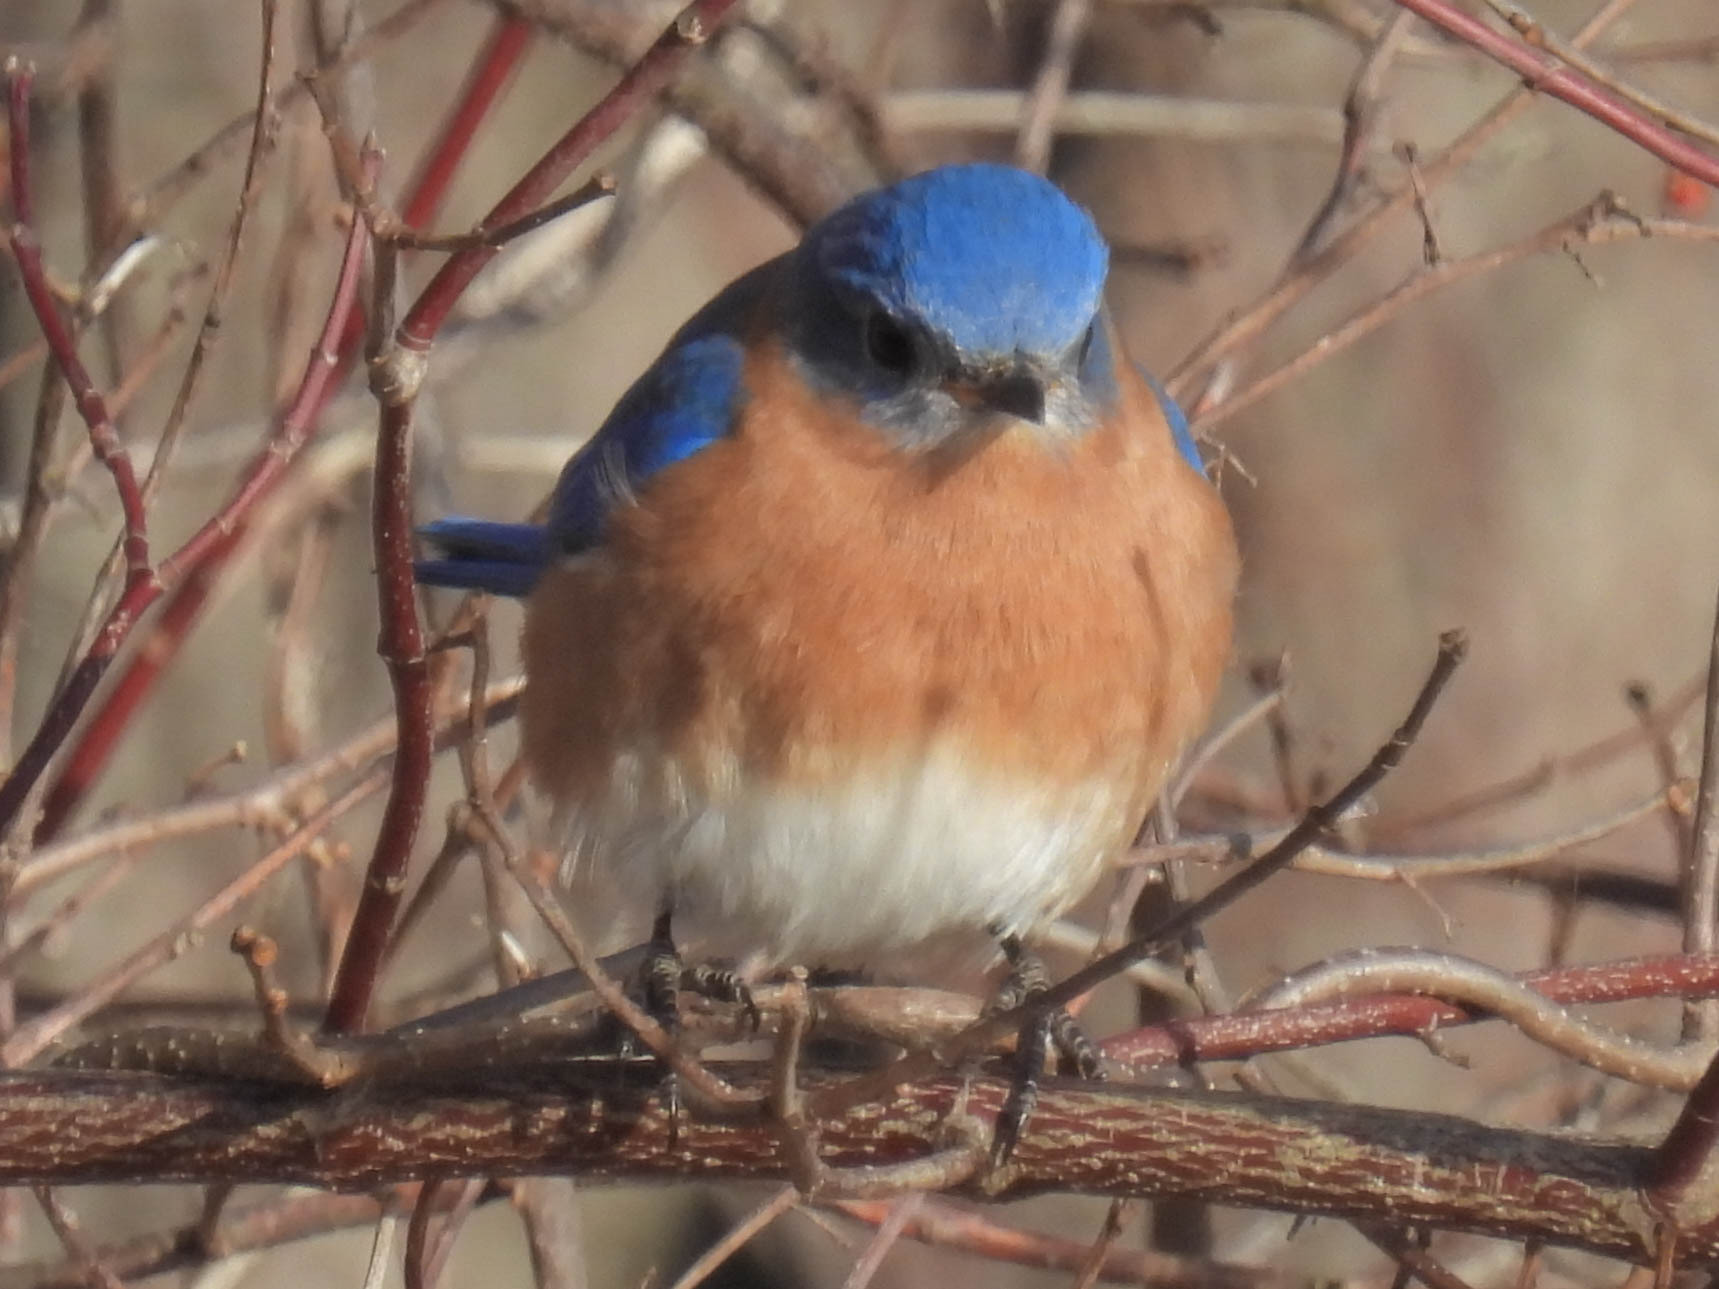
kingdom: Animalia
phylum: Chordata
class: Aves
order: Passeriformes
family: Turdidae
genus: Sialia
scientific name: Sialia sialis
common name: Eastern bluebird
